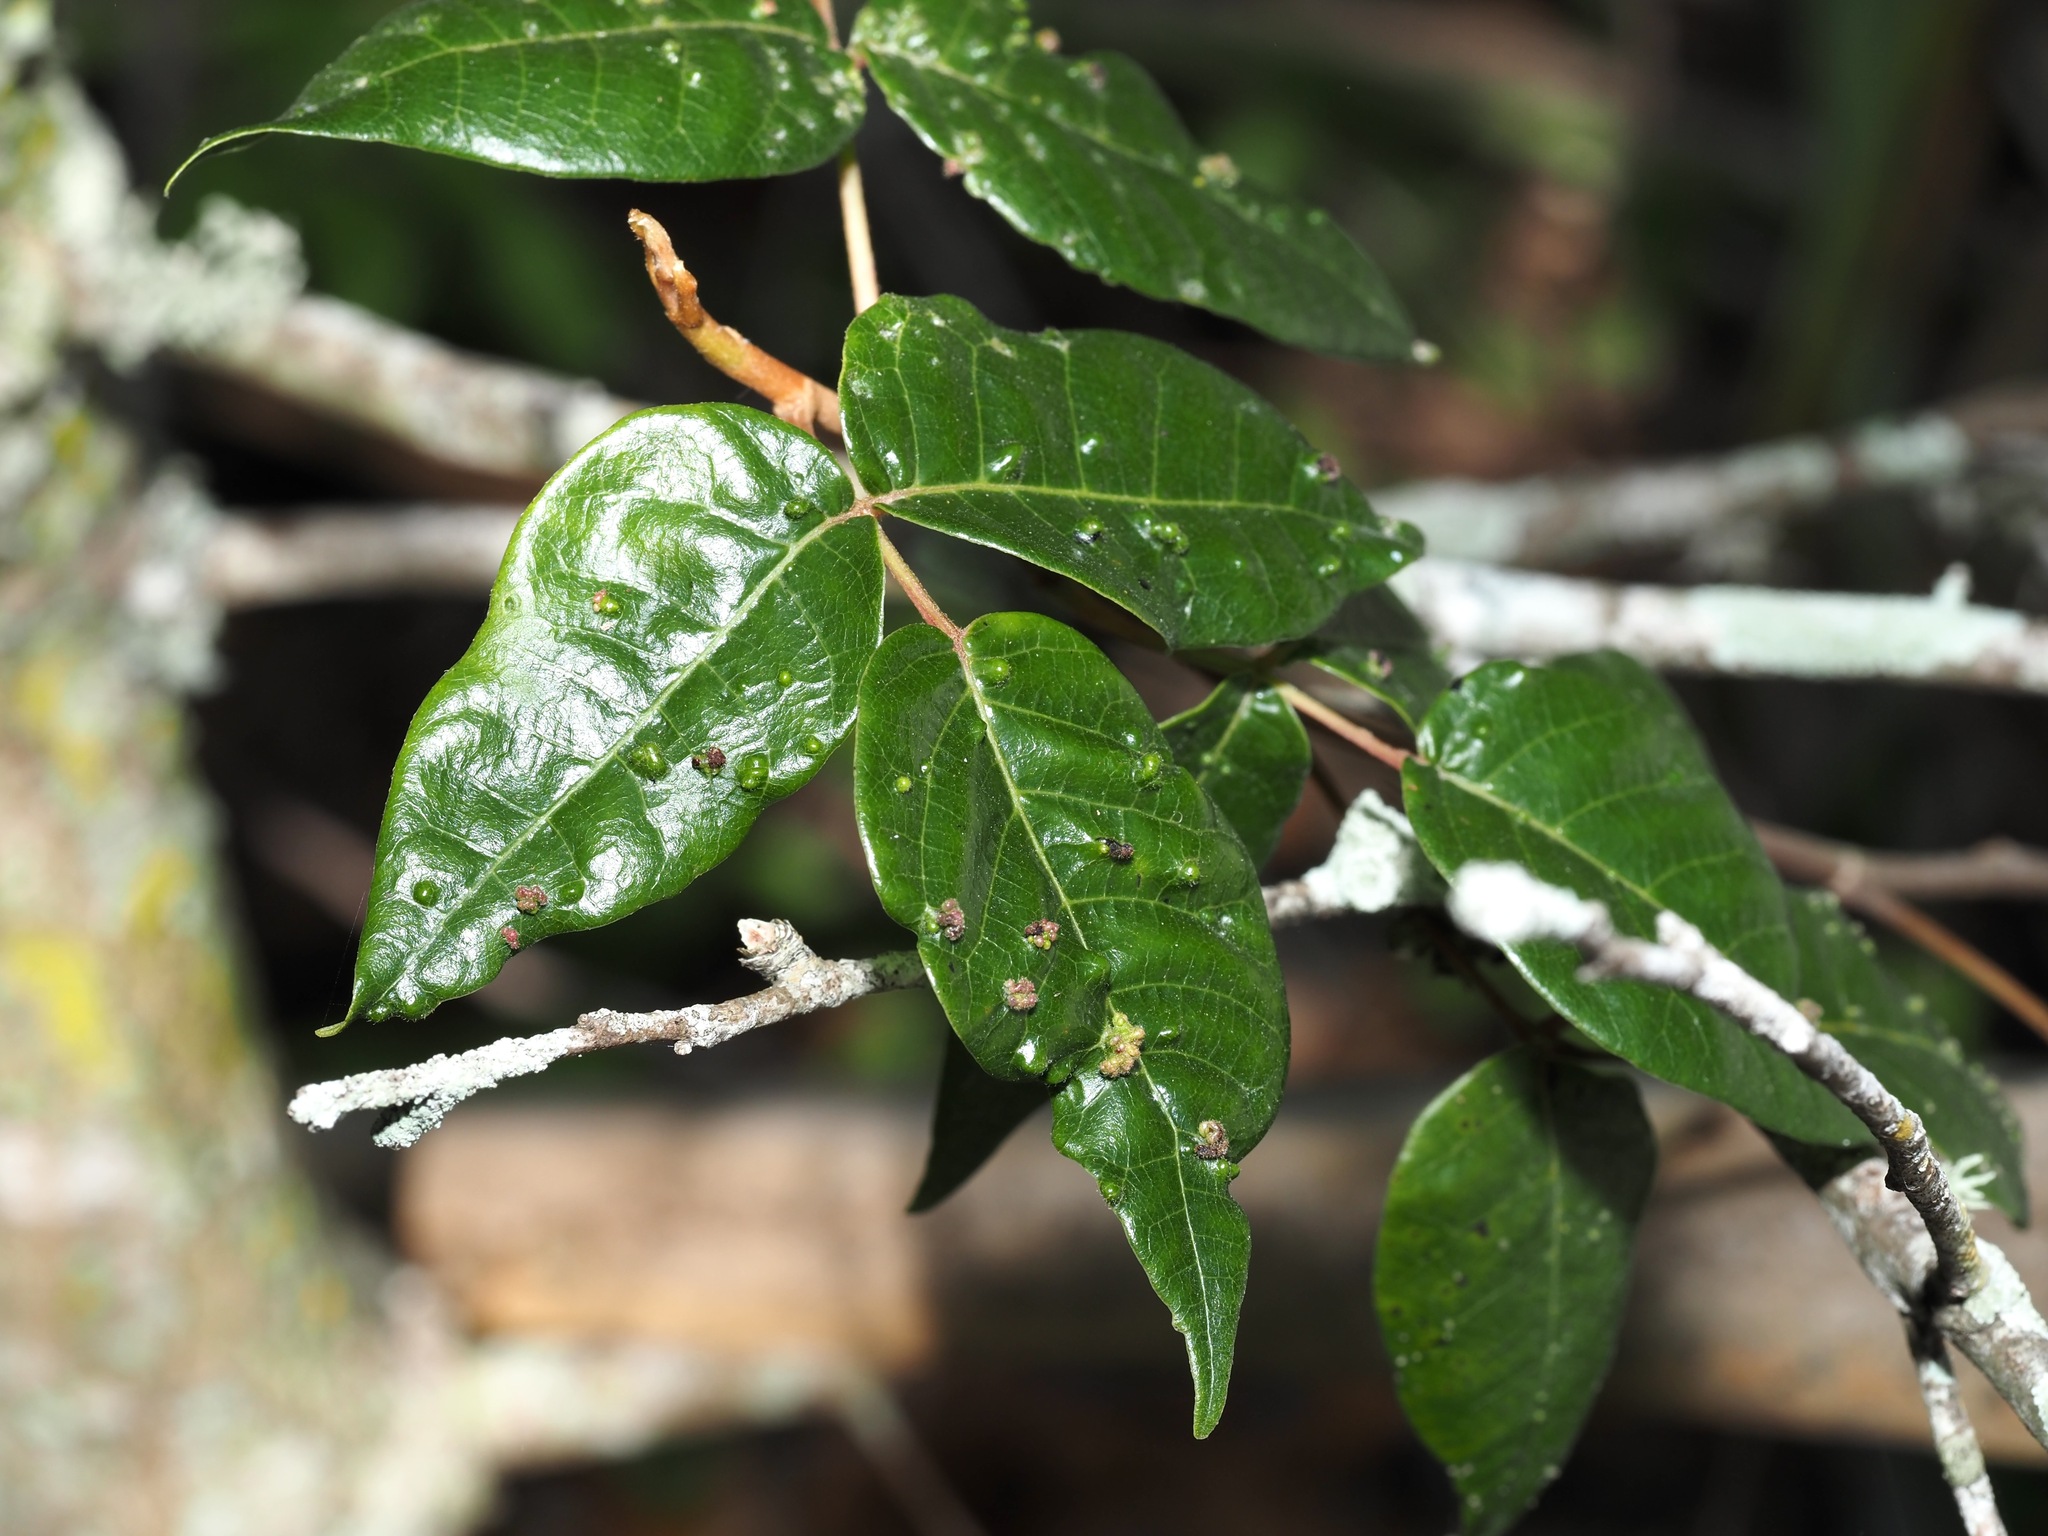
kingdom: Plantae
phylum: Tracheophyta
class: Magnoliopsida
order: Sapindales
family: Anacardiaceae
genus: Toxicodendron
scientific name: Toxicodendron radicans
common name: Poison ivy
